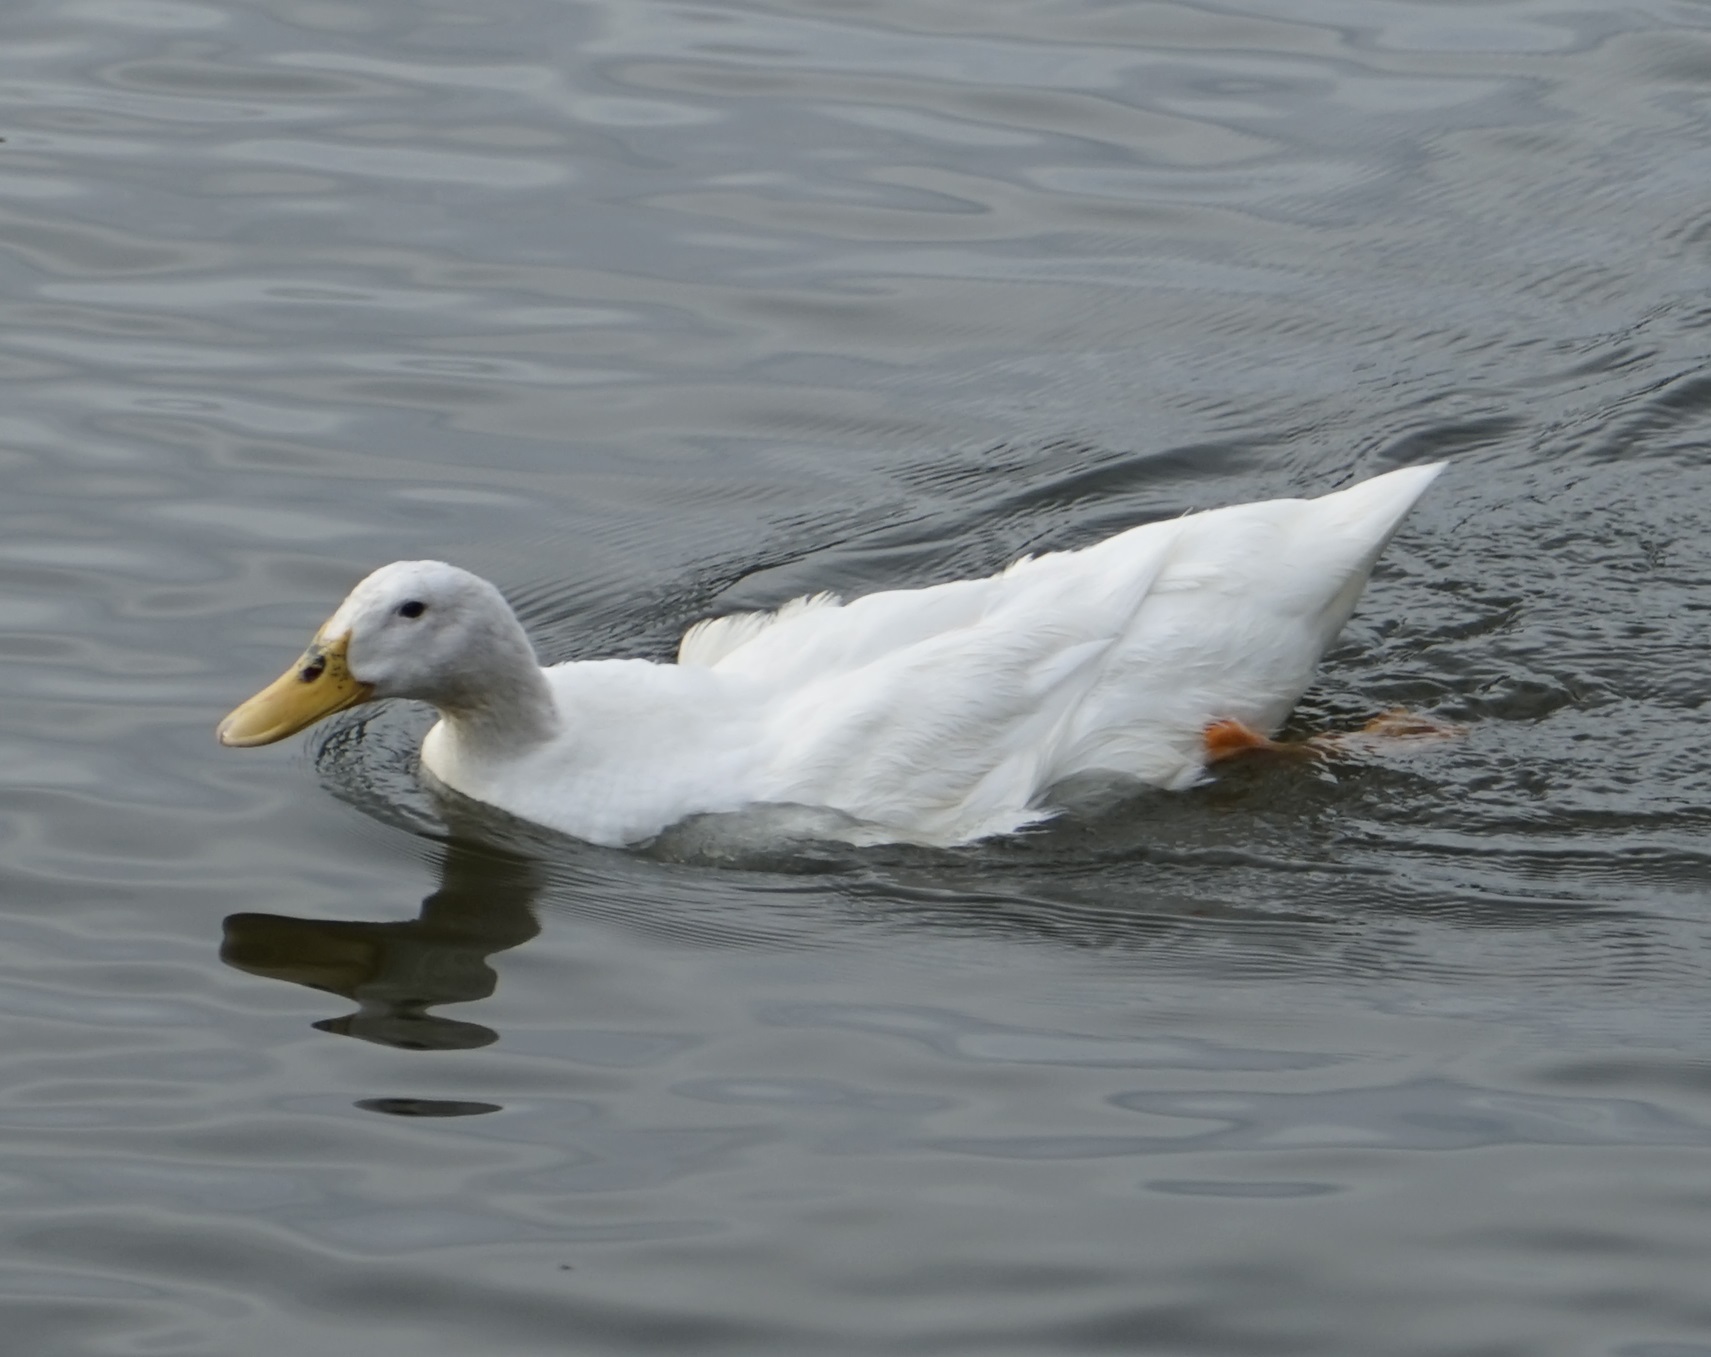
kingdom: Animalia
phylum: Chordata
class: Aves
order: Anseriformes
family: Anatidae
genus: Anas
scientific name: Anas platyrhynchos
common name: Mallard
